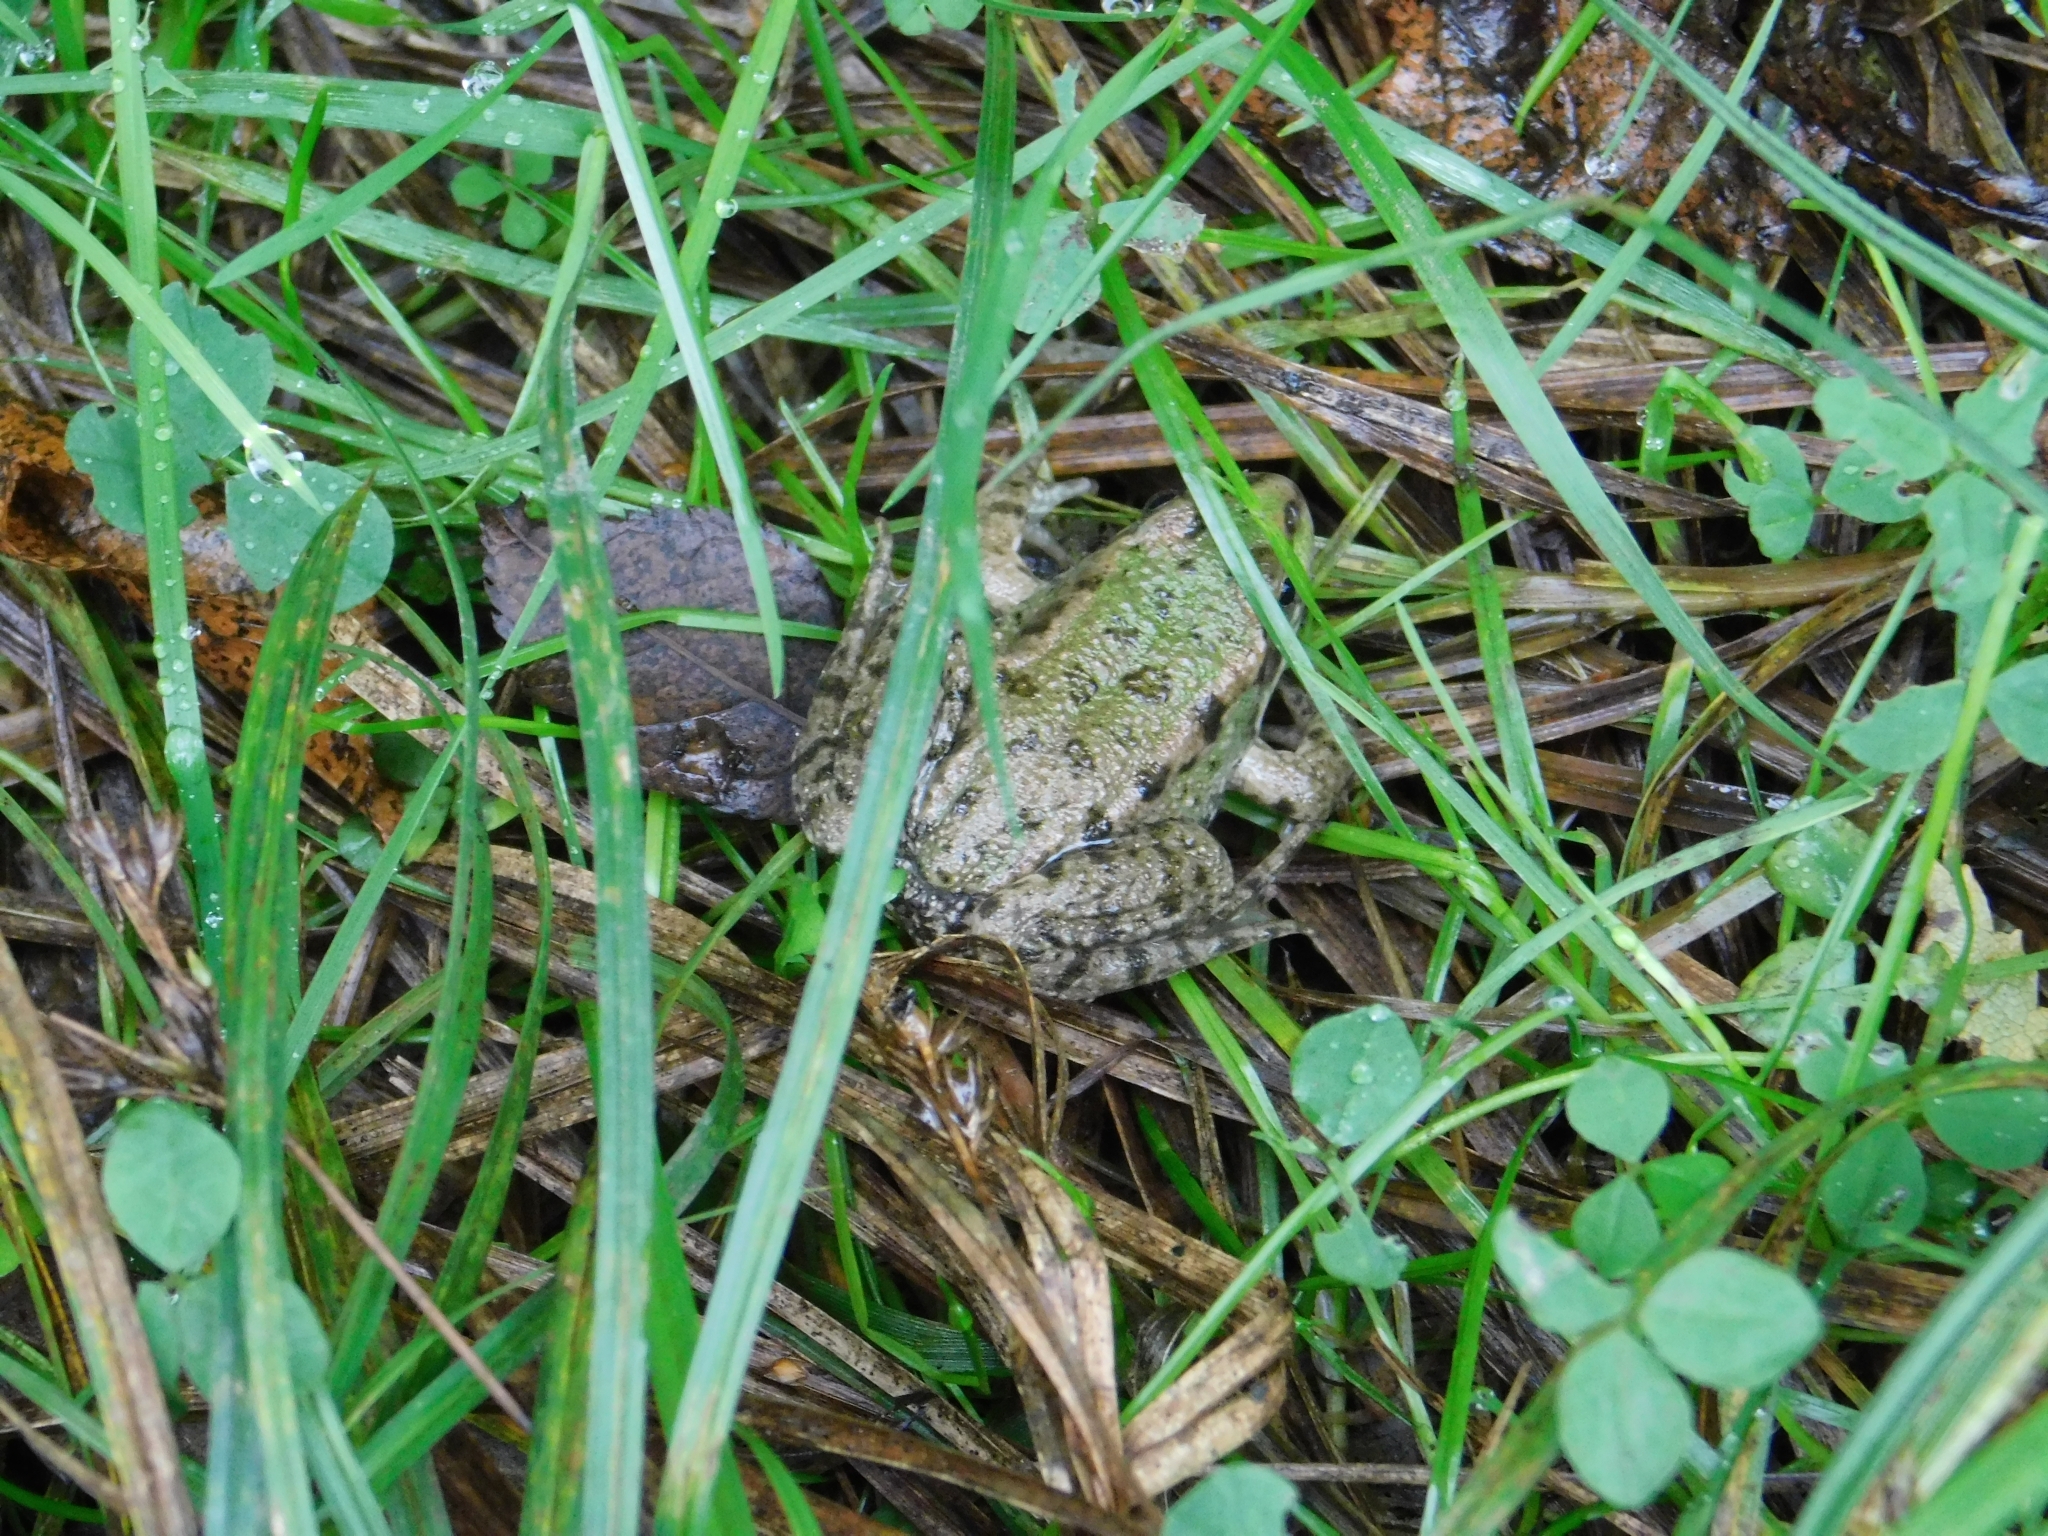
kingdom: Animalia
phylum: Chordata
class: Amphibia
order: Anura
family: Ranidae
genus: Pelophylax
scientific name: Pelophylax ridibundus
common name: Marsh frog
